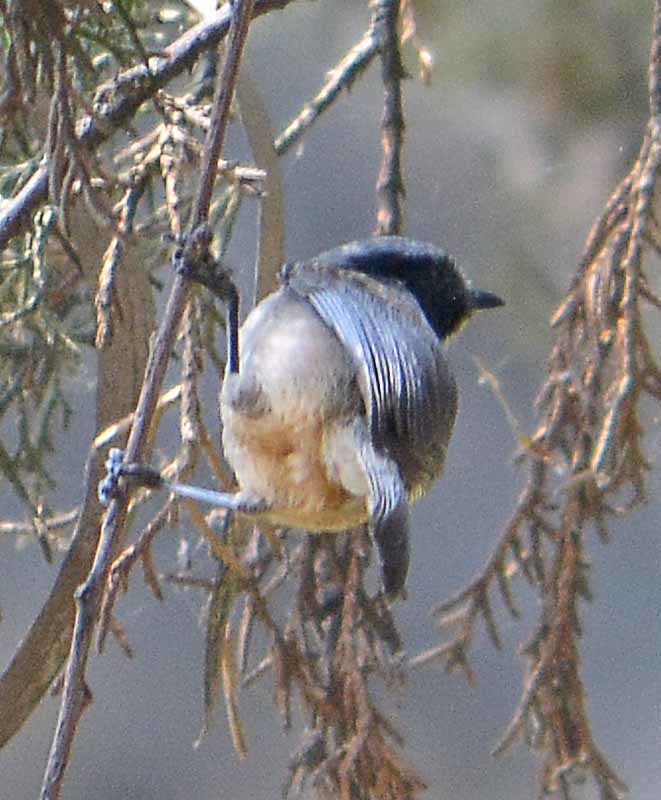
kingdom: Animalia
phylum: Chordata
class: Aves
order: Passeriformes
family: Aegithalidae
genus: Psaltriparus
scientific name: Psaltriparus minimus
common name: American bushtit
